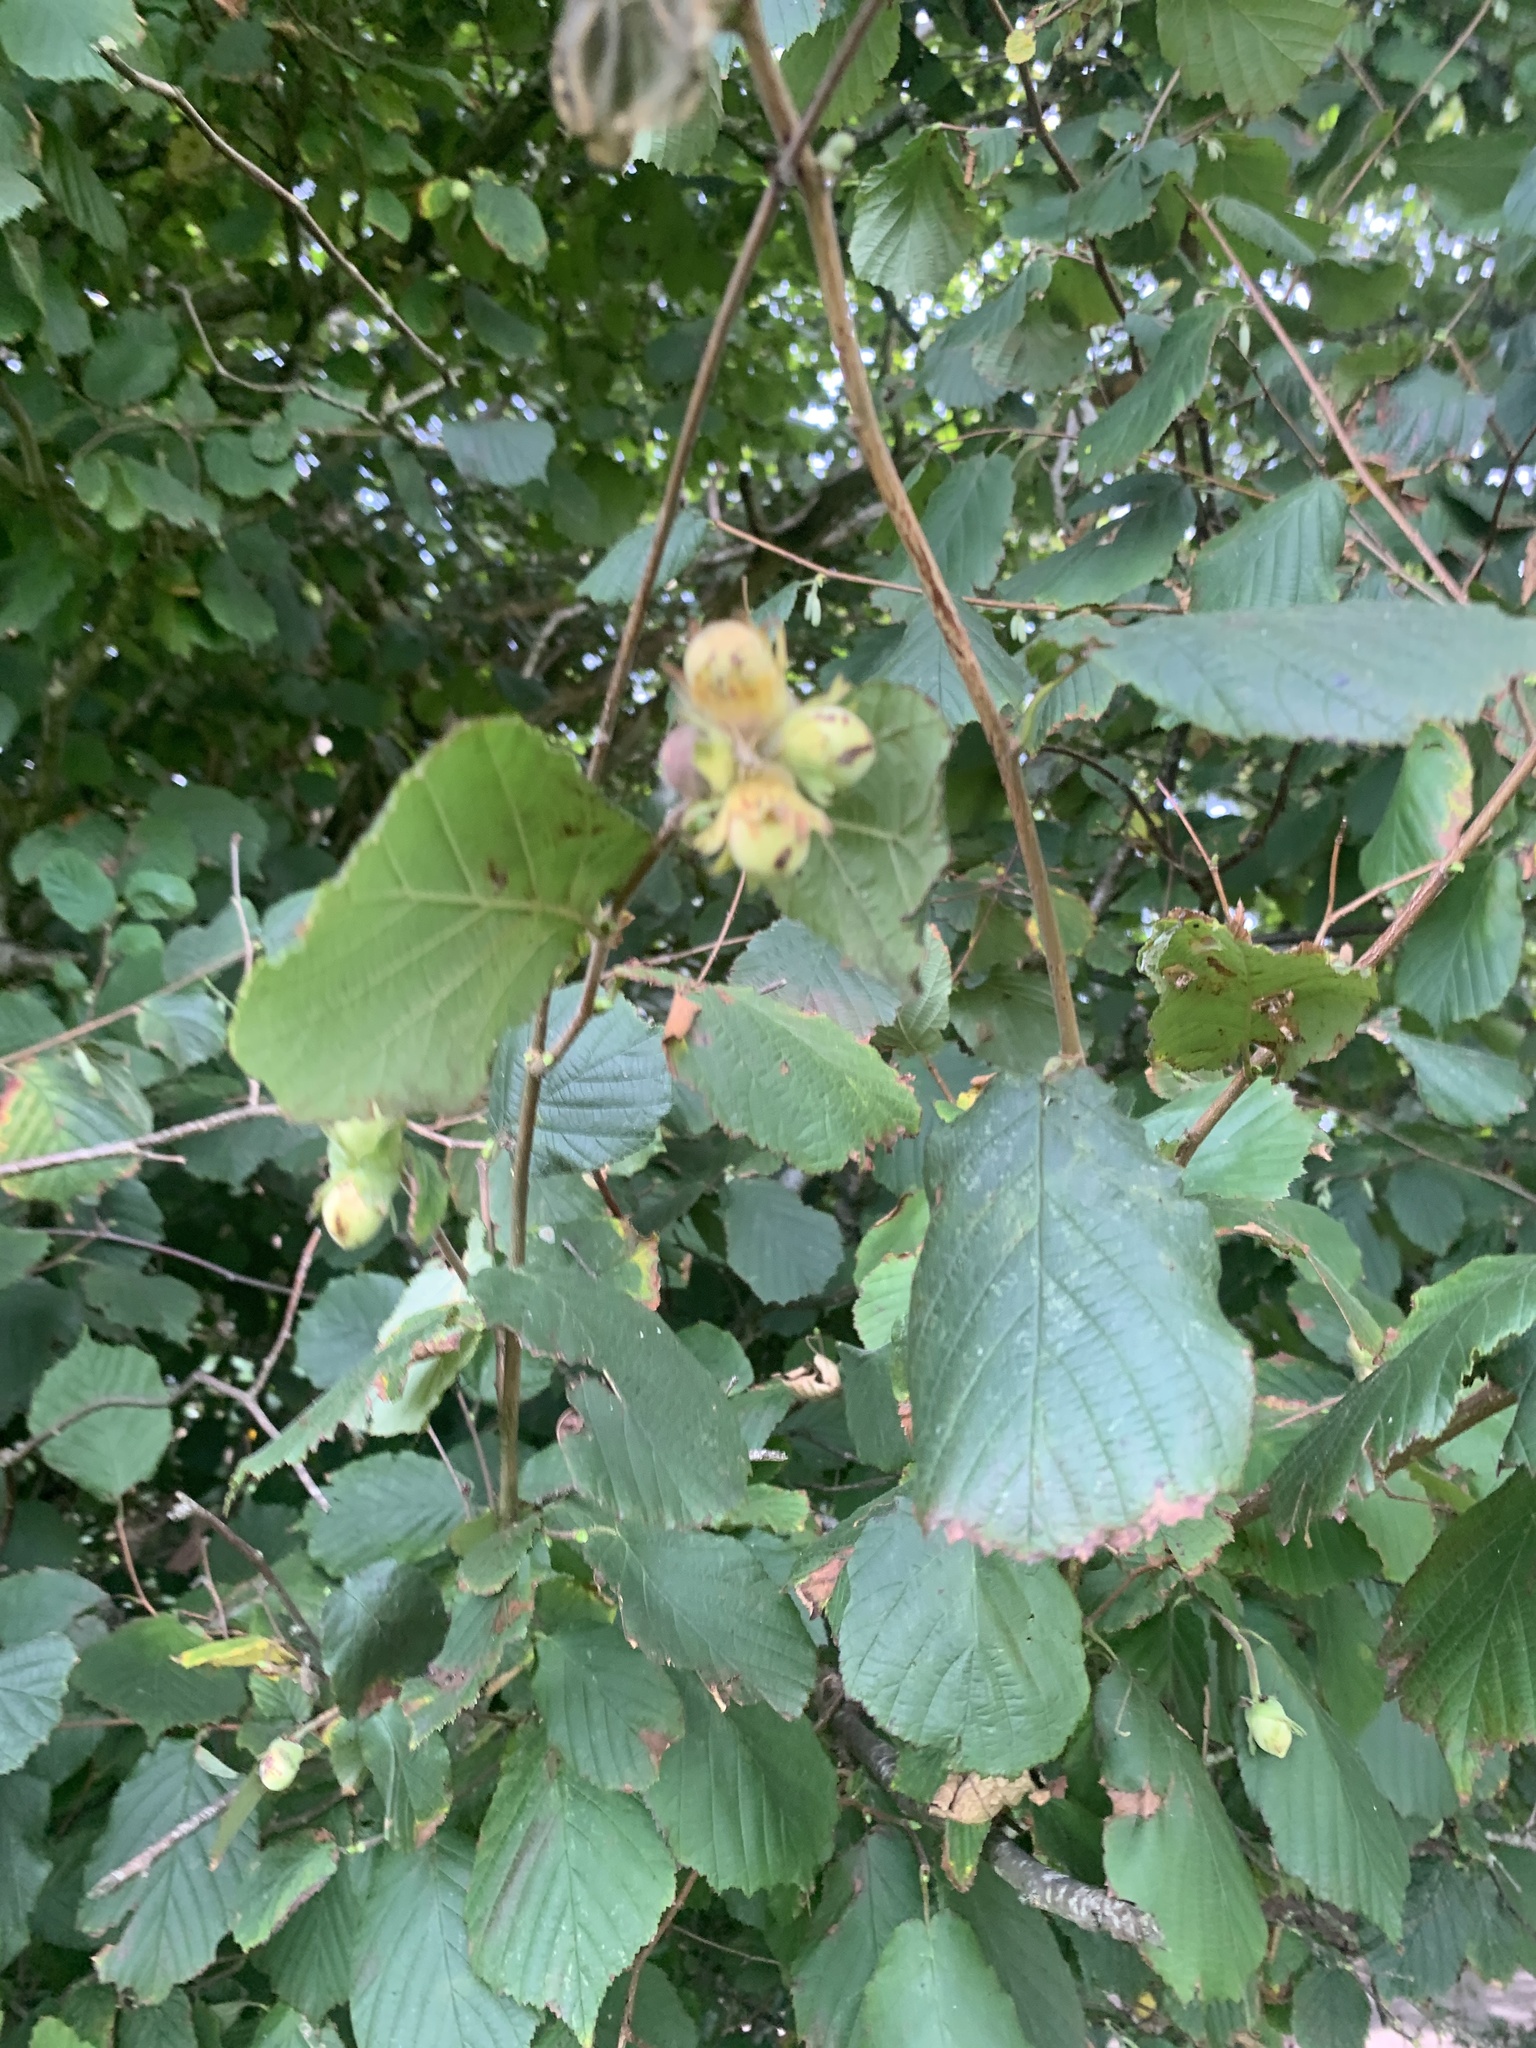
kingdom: Plantae
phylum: Tracheophyta
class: Magnoliopsida
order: Fagales
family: Betulaceae
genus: Corylus
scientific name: Corylus avellana
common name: European hazel
